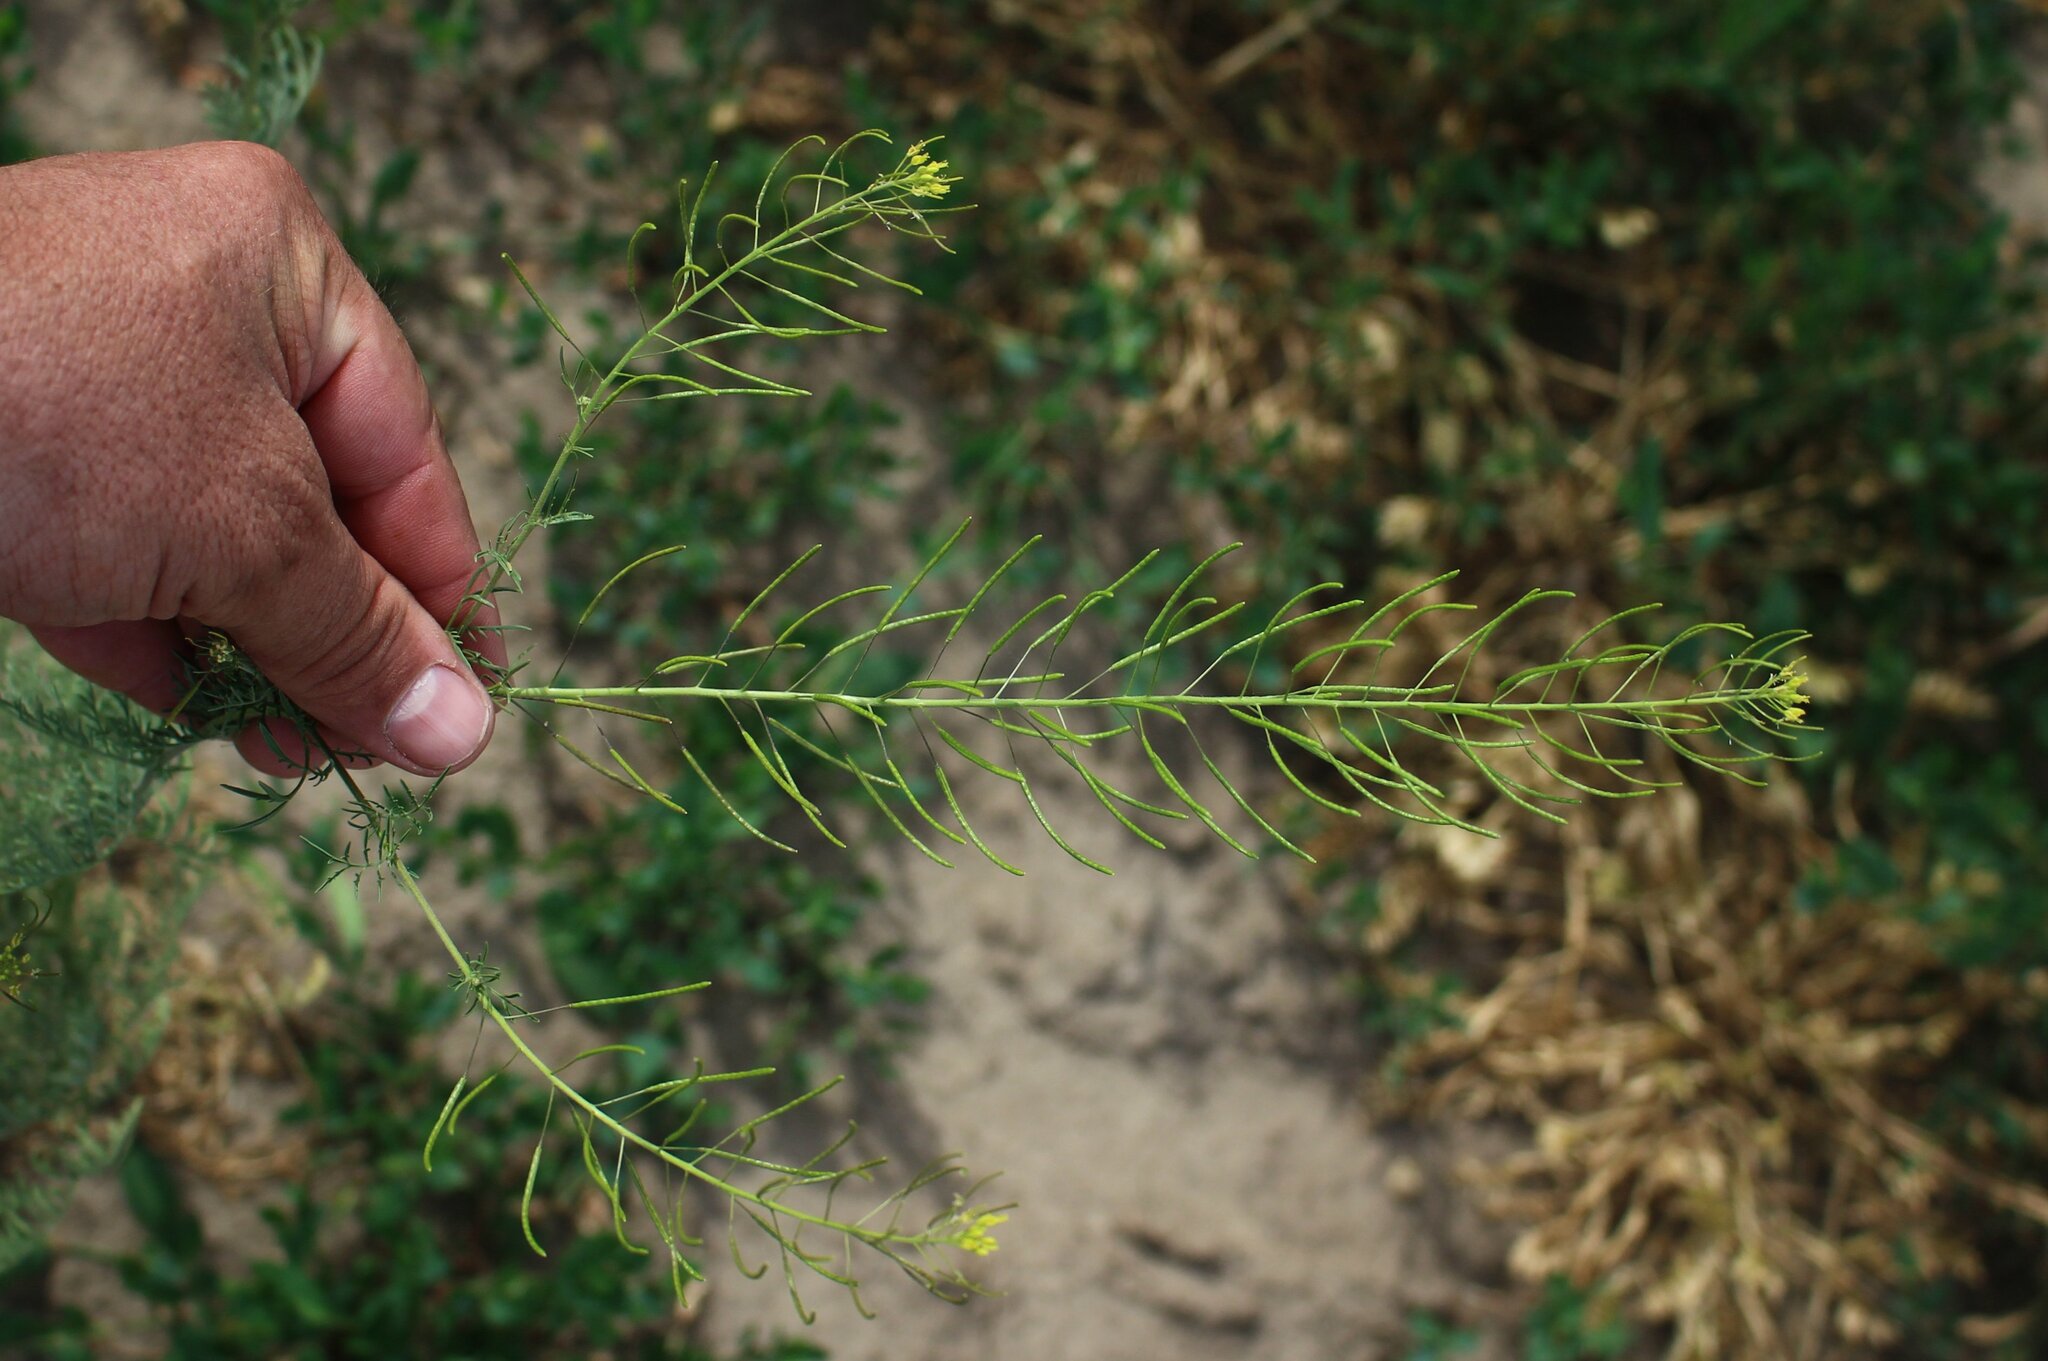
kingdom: Plantae
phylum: Tracheophyta
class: Magnoliopsida
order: Brassicales
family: Brassicaceae
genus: Descurainia
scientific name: Descurainia sophia
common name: Flixweed
